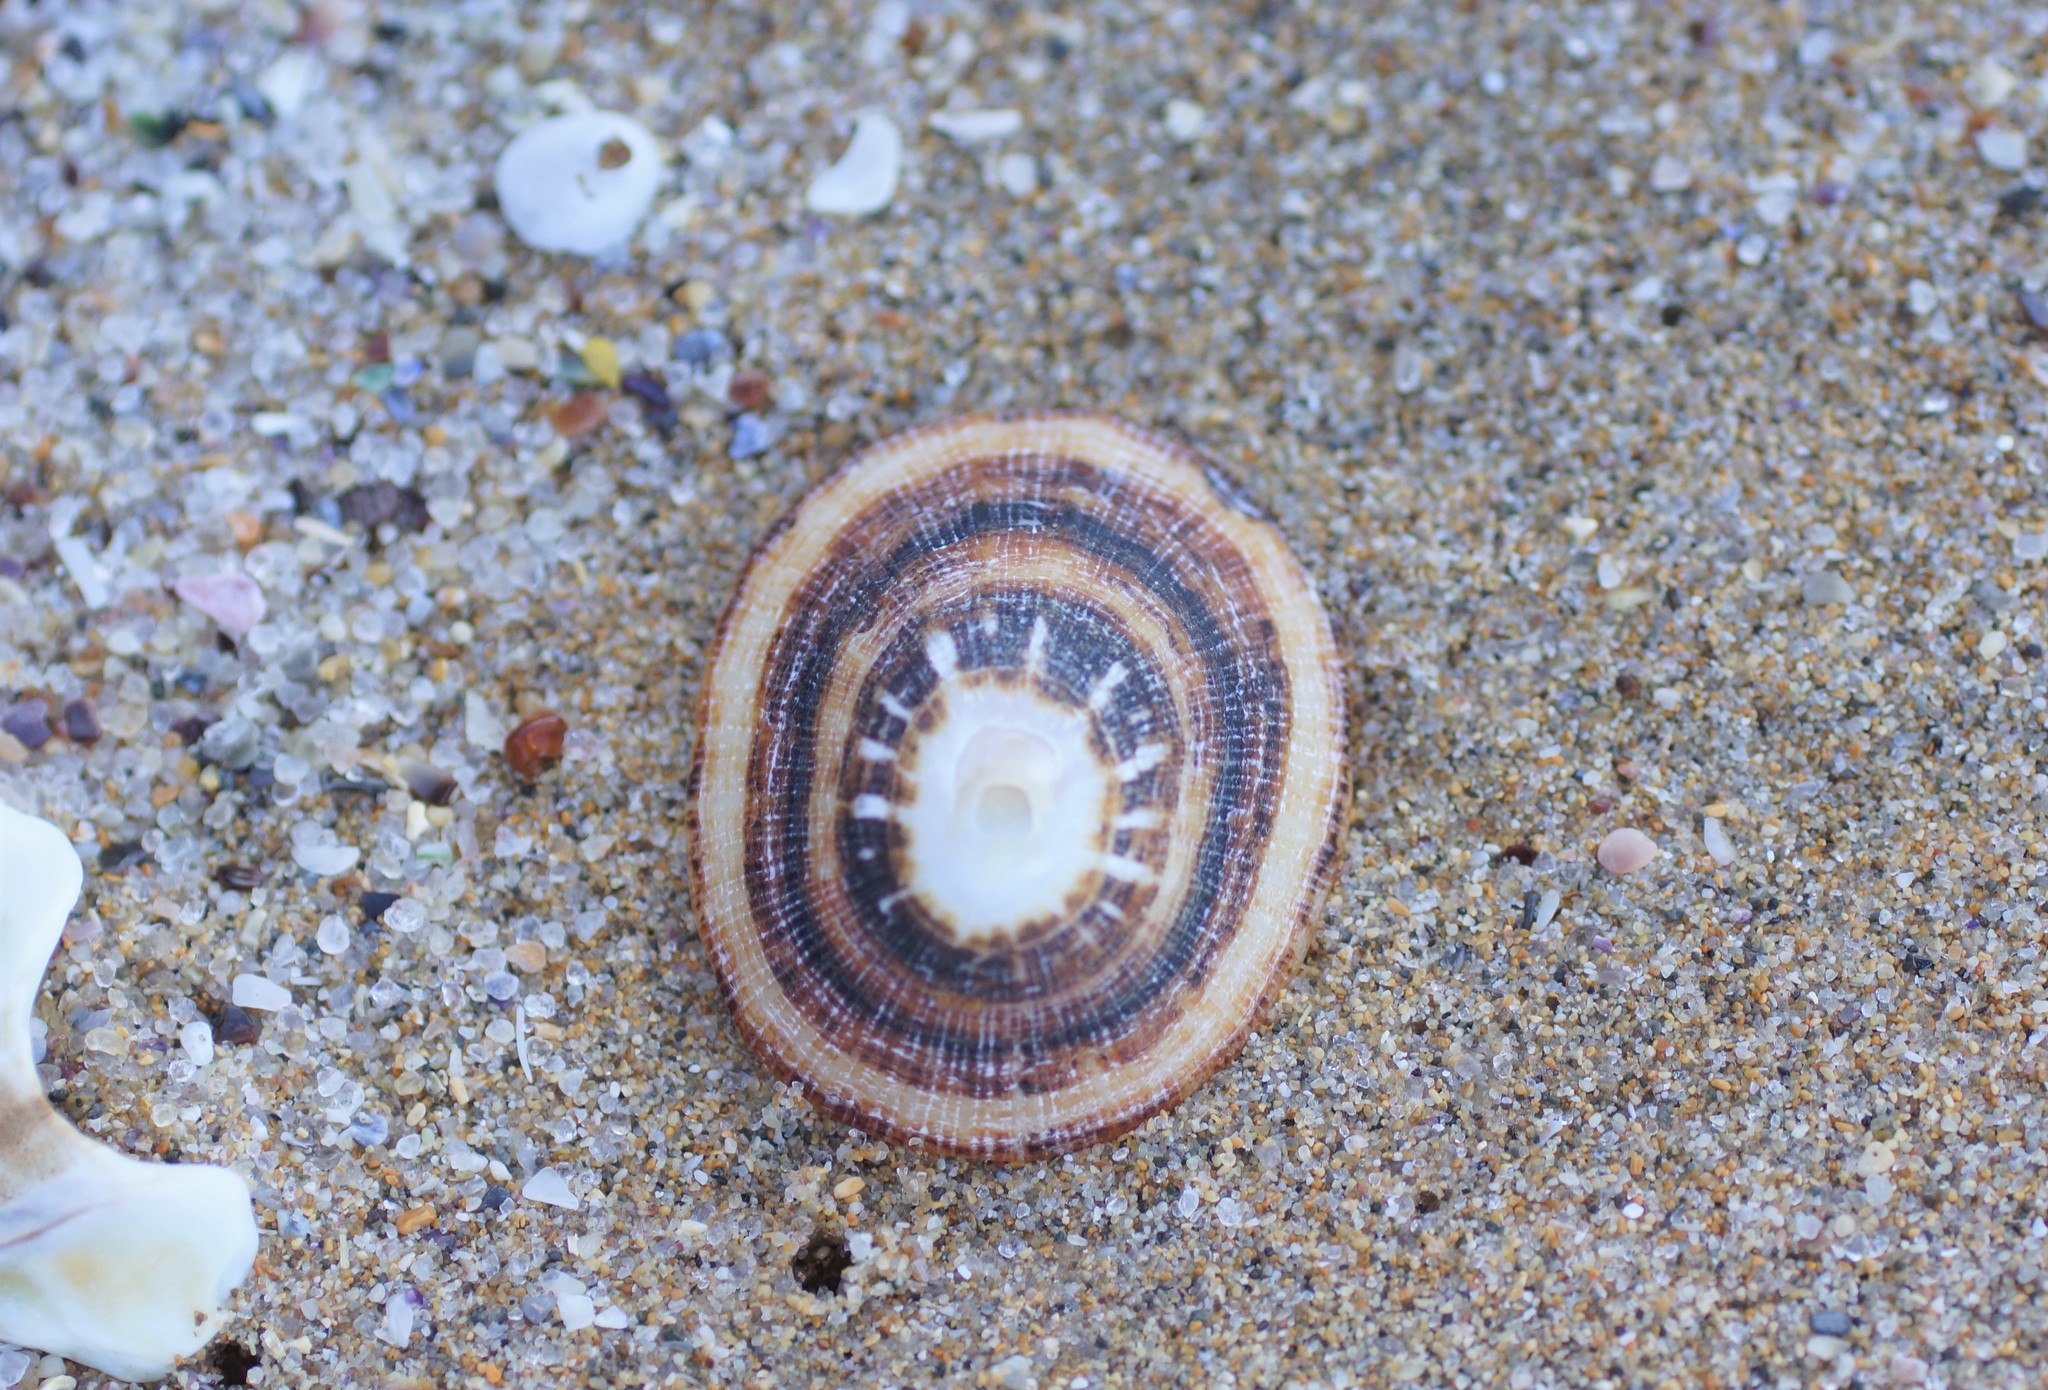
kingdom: Animalia
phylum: Mollusca
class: Gastropoda
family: Patellidae
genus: Scutellastra
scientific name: Scutellastra peronii
